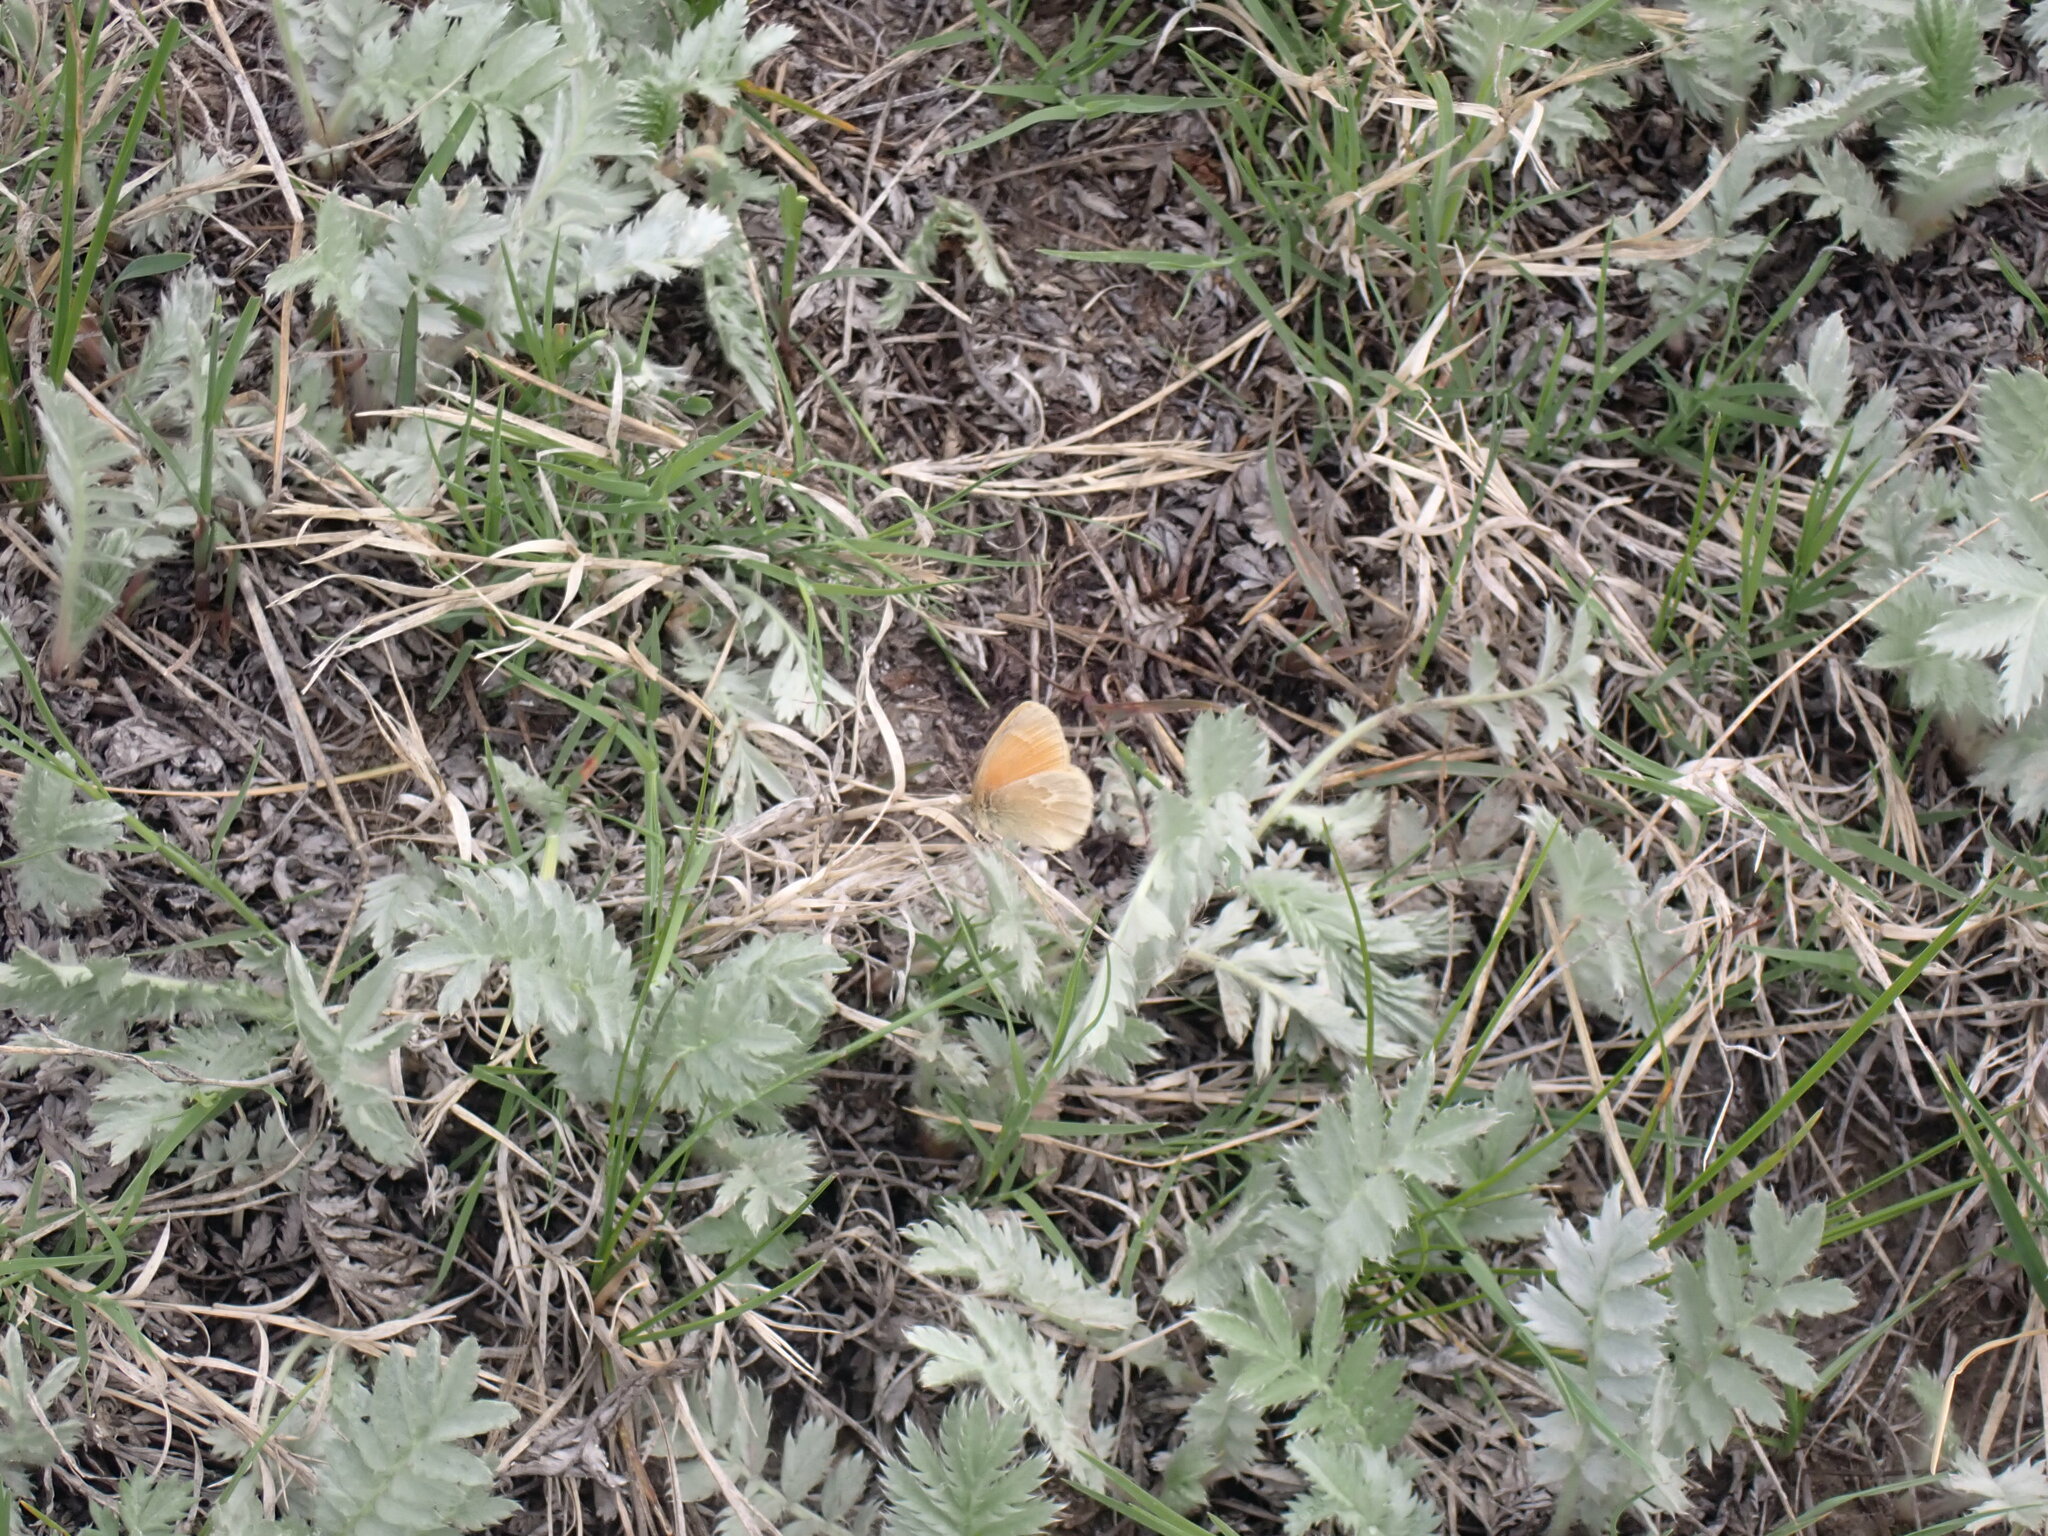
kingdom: Animalia
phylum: Arthropoda
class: Insecta
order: Lepidoptera
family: Nymphalidae
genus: Coenonympha
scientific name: Coenonympha california
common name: Common ringlet
